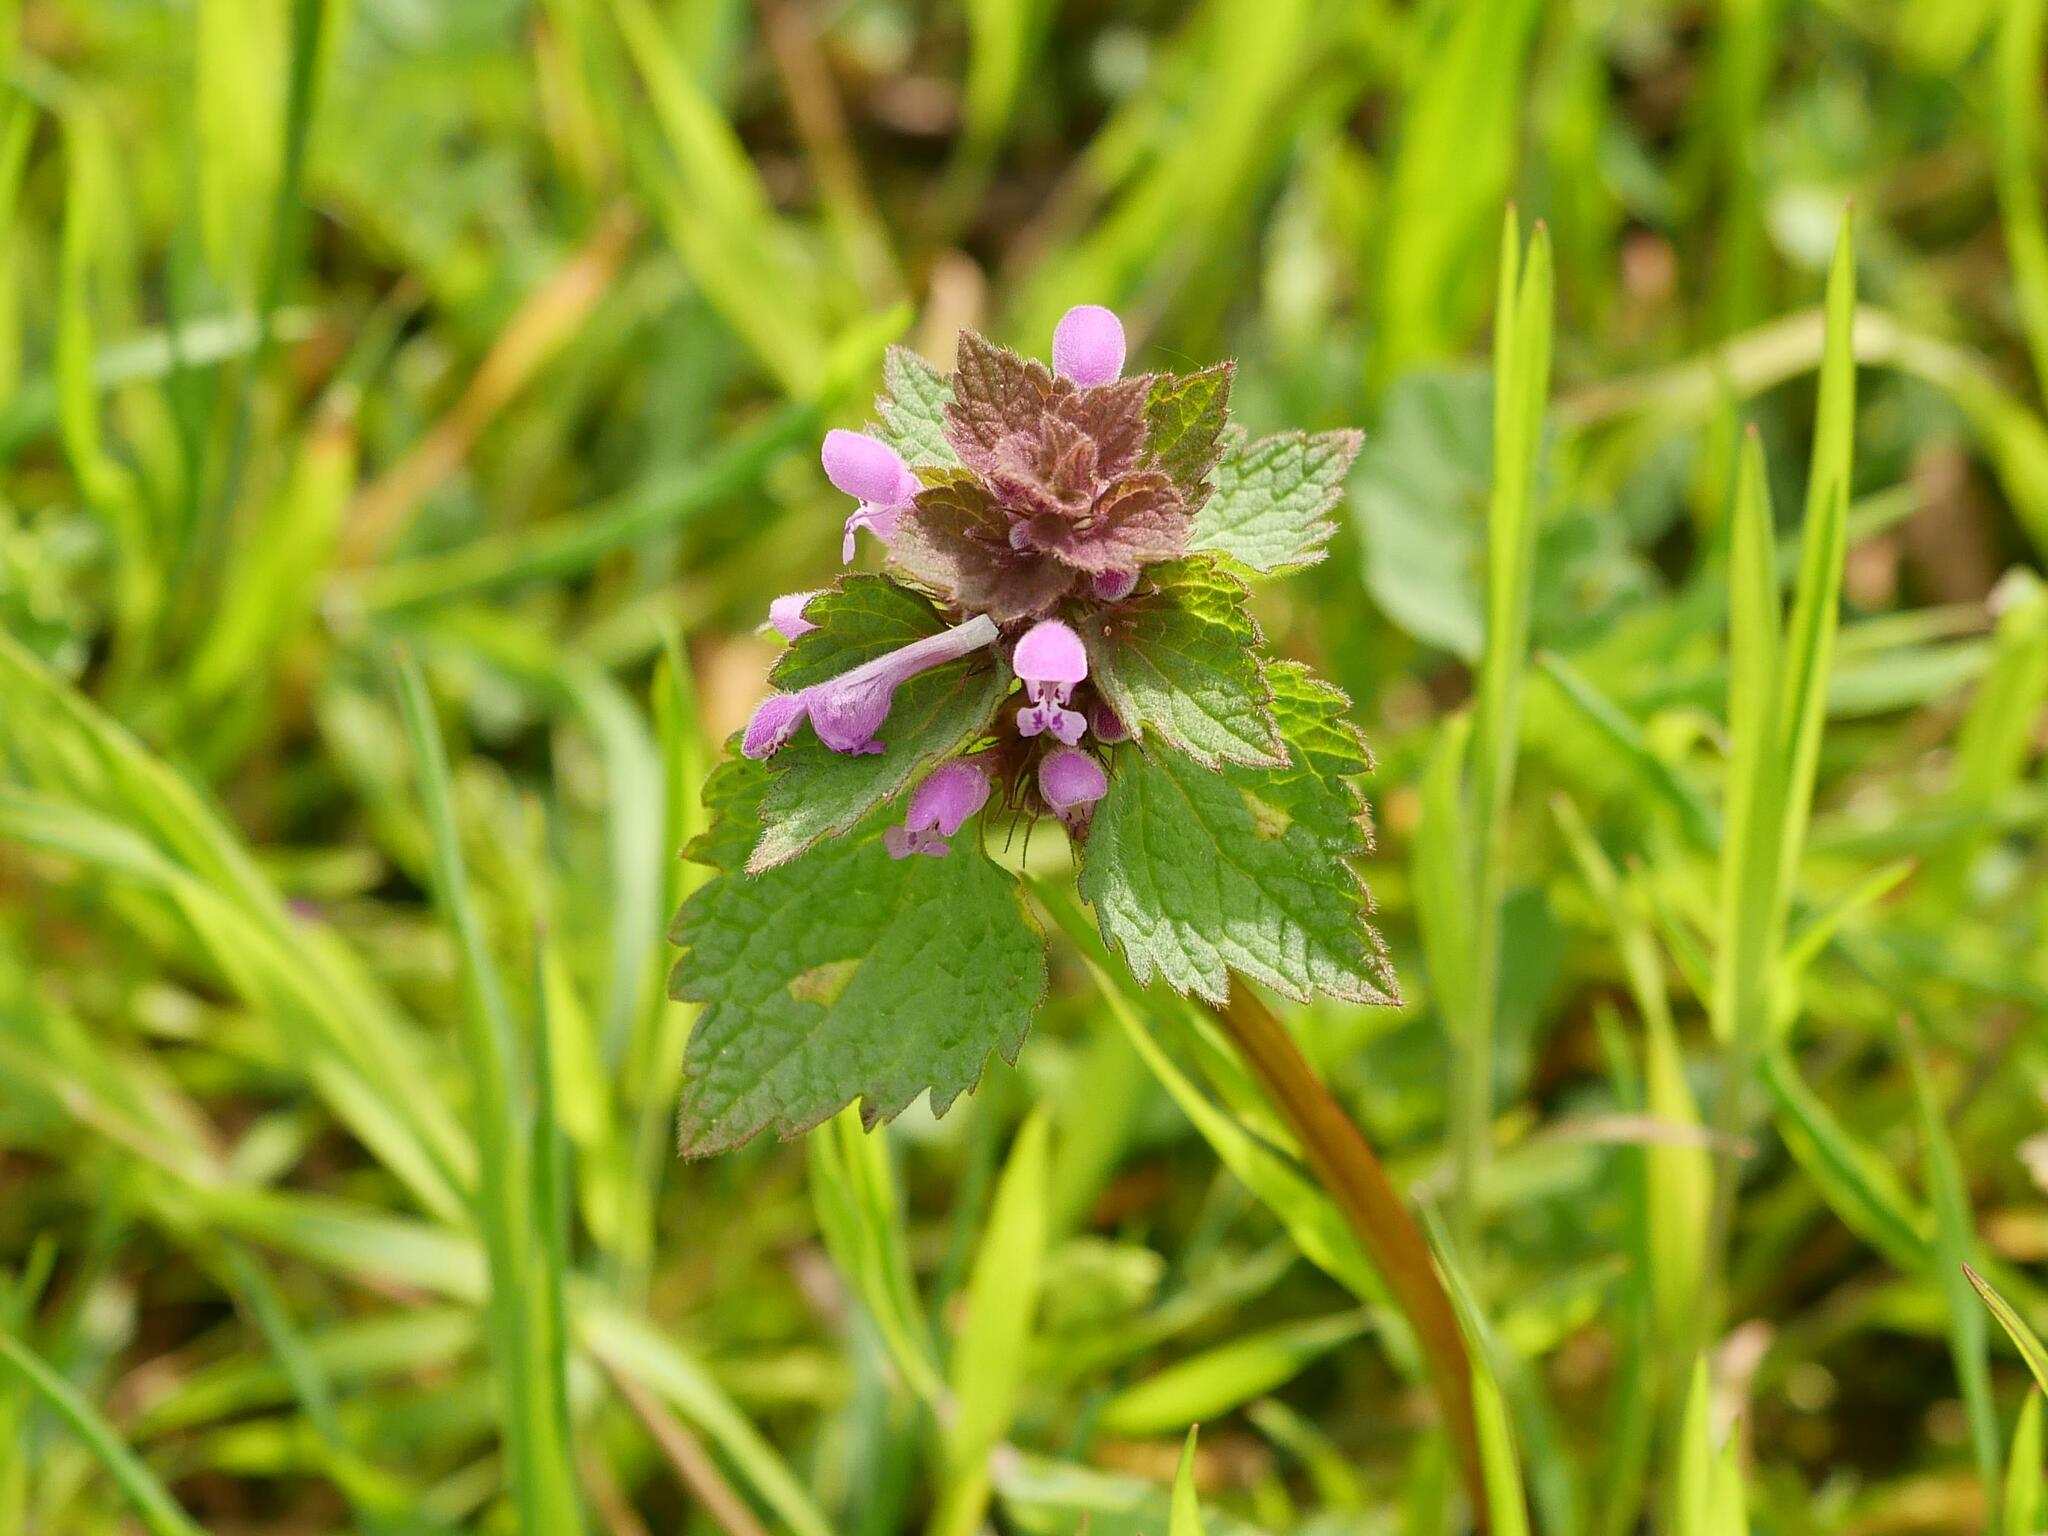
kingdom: Plantae
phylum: Tracheophyta
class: Magnoliopsida
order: Lamiales
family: Lamiaceae
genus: Lamium
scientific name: Lamium purpureum
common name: Red dead-nettle
